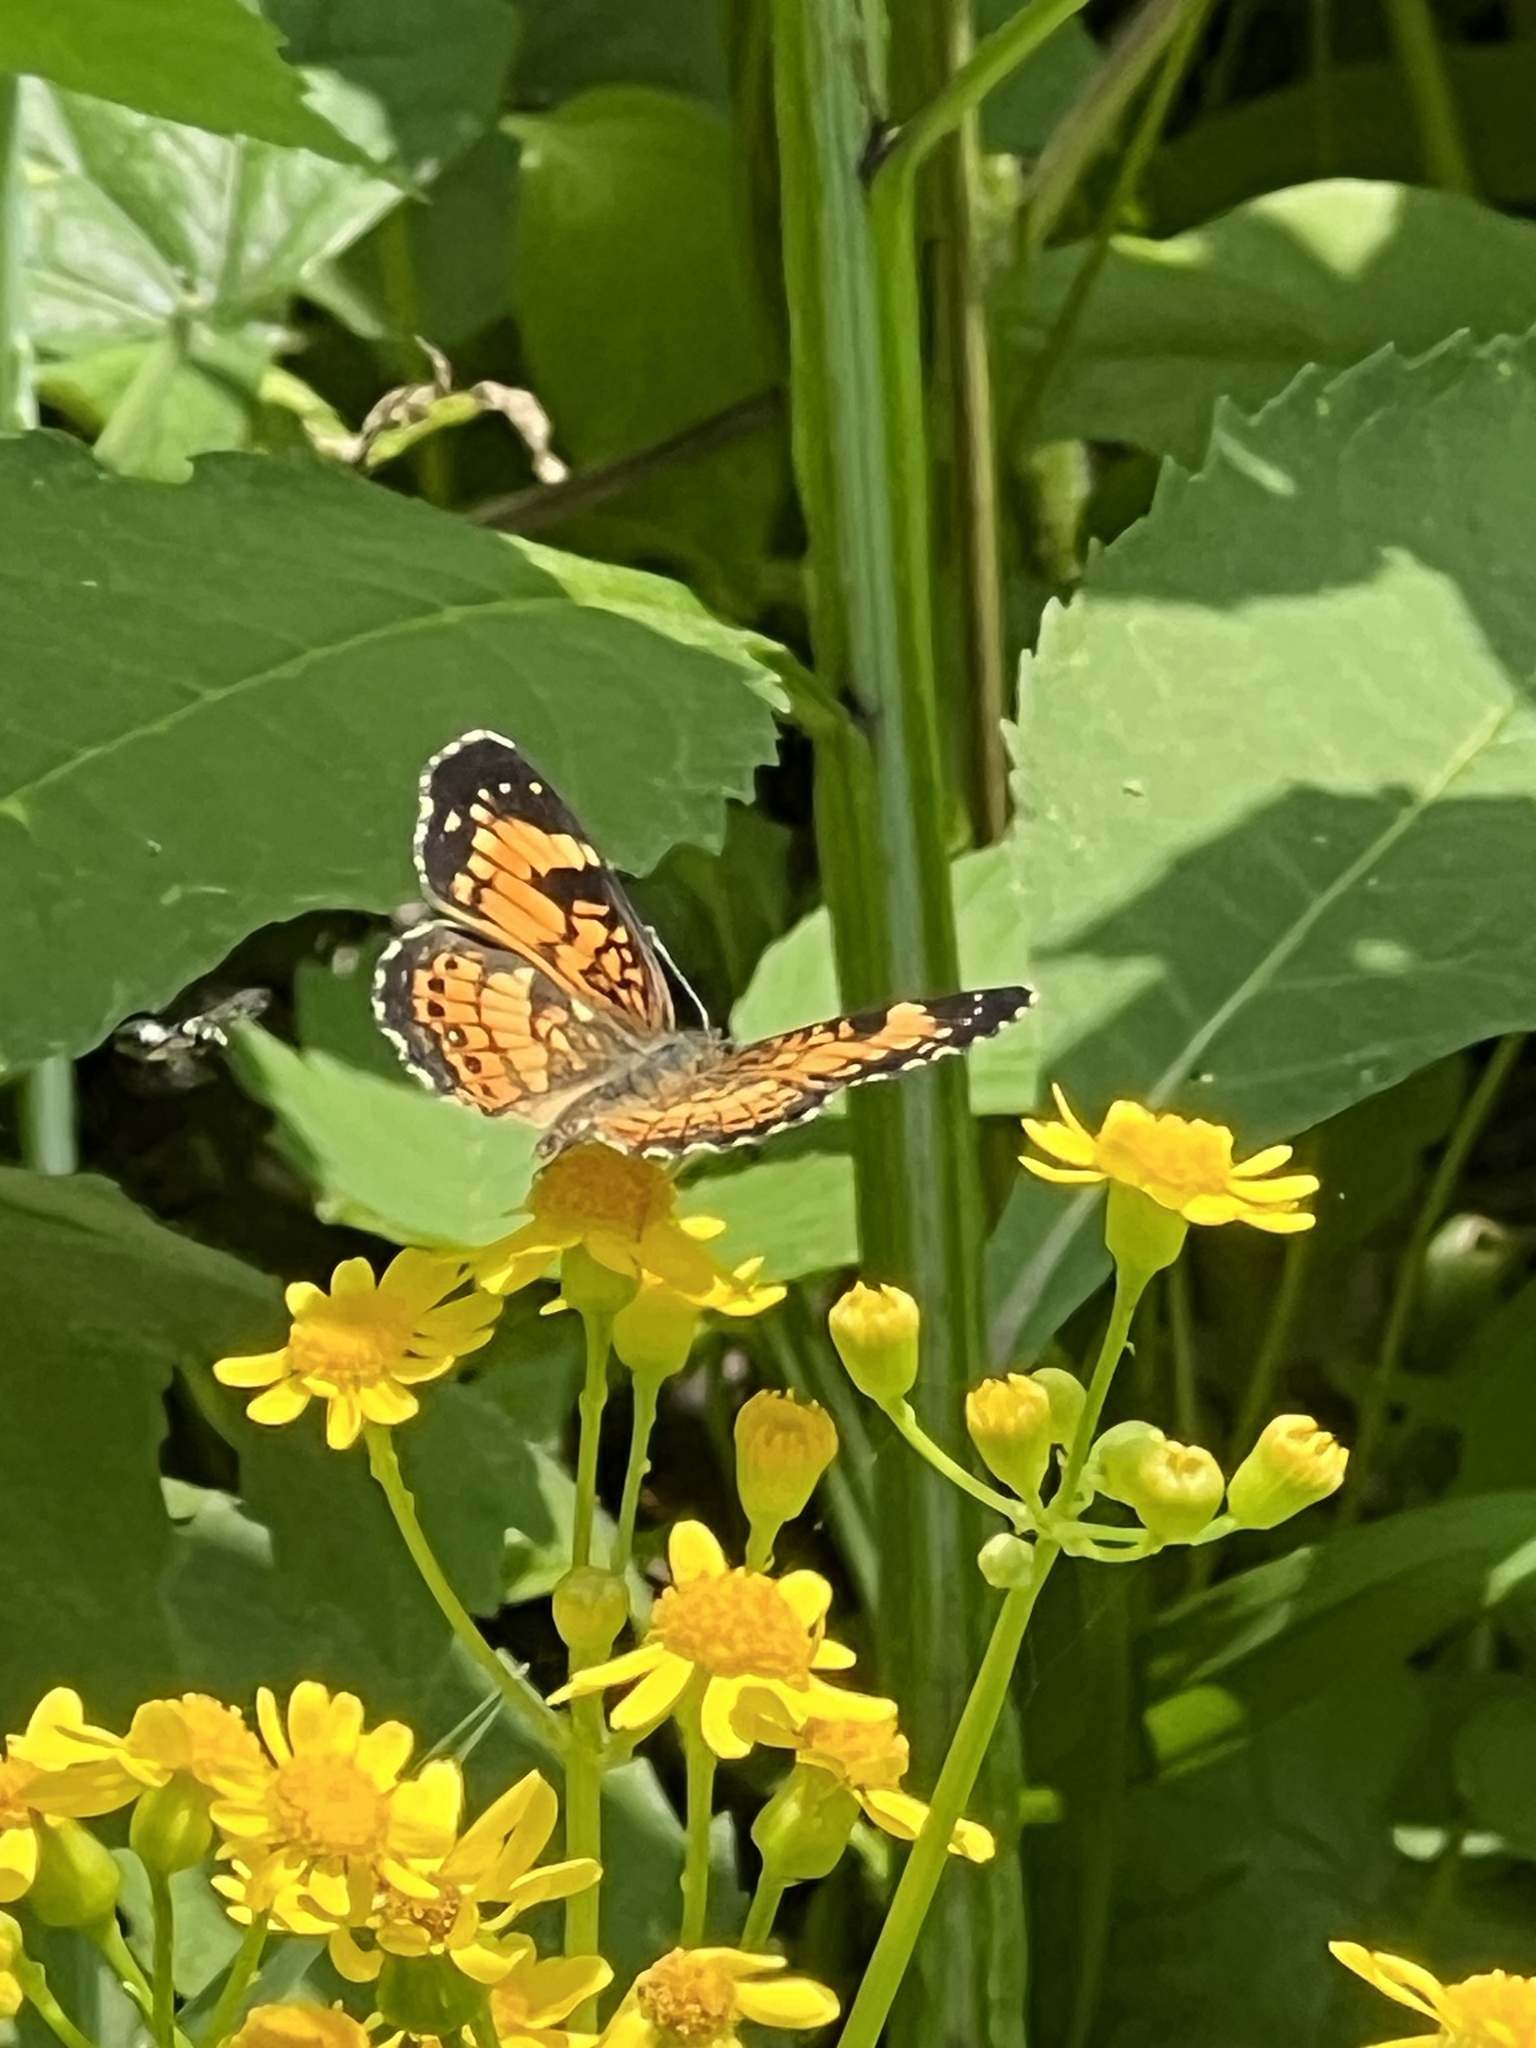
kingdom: Animalia
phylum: Arthropoda
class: Insecta
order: Lepidoptera
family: Nymphalidae
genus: Chlosyne
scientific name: Chlosyne nycteis
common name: Silvery checkerspot
